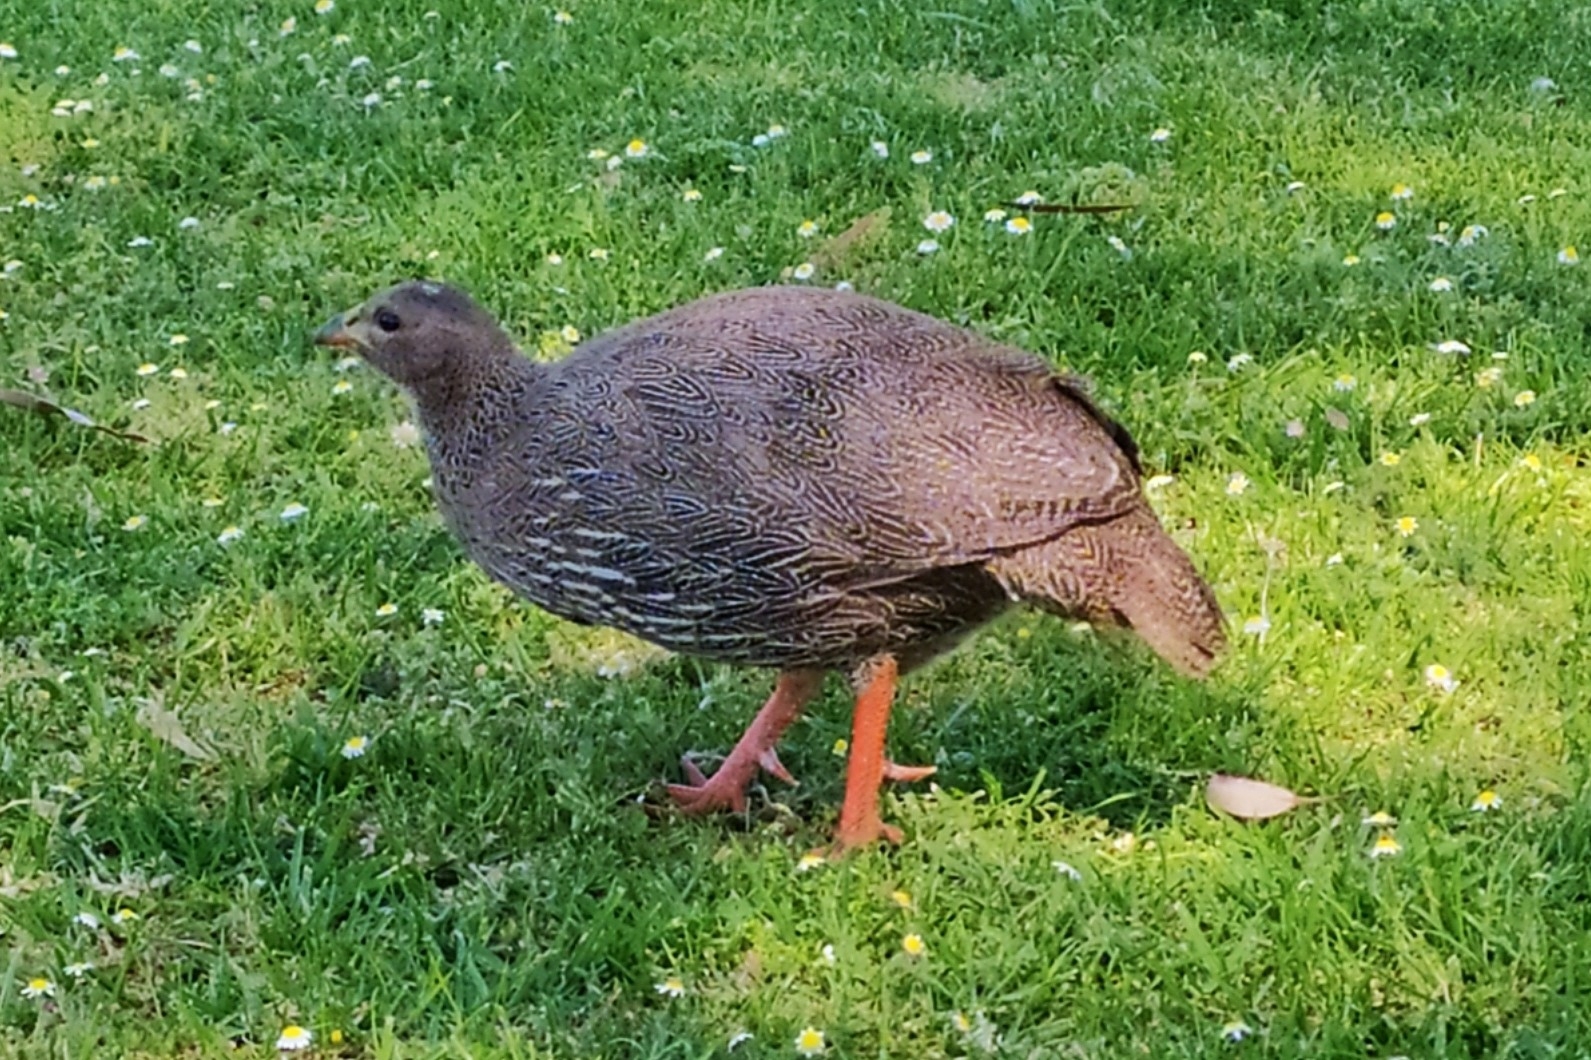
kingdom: Animalia
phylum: Chordata
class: Aves
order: Galliformes
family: Phasianidae
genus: Pternistis
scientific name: Pternistis capensis
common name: Cape spurfowl
